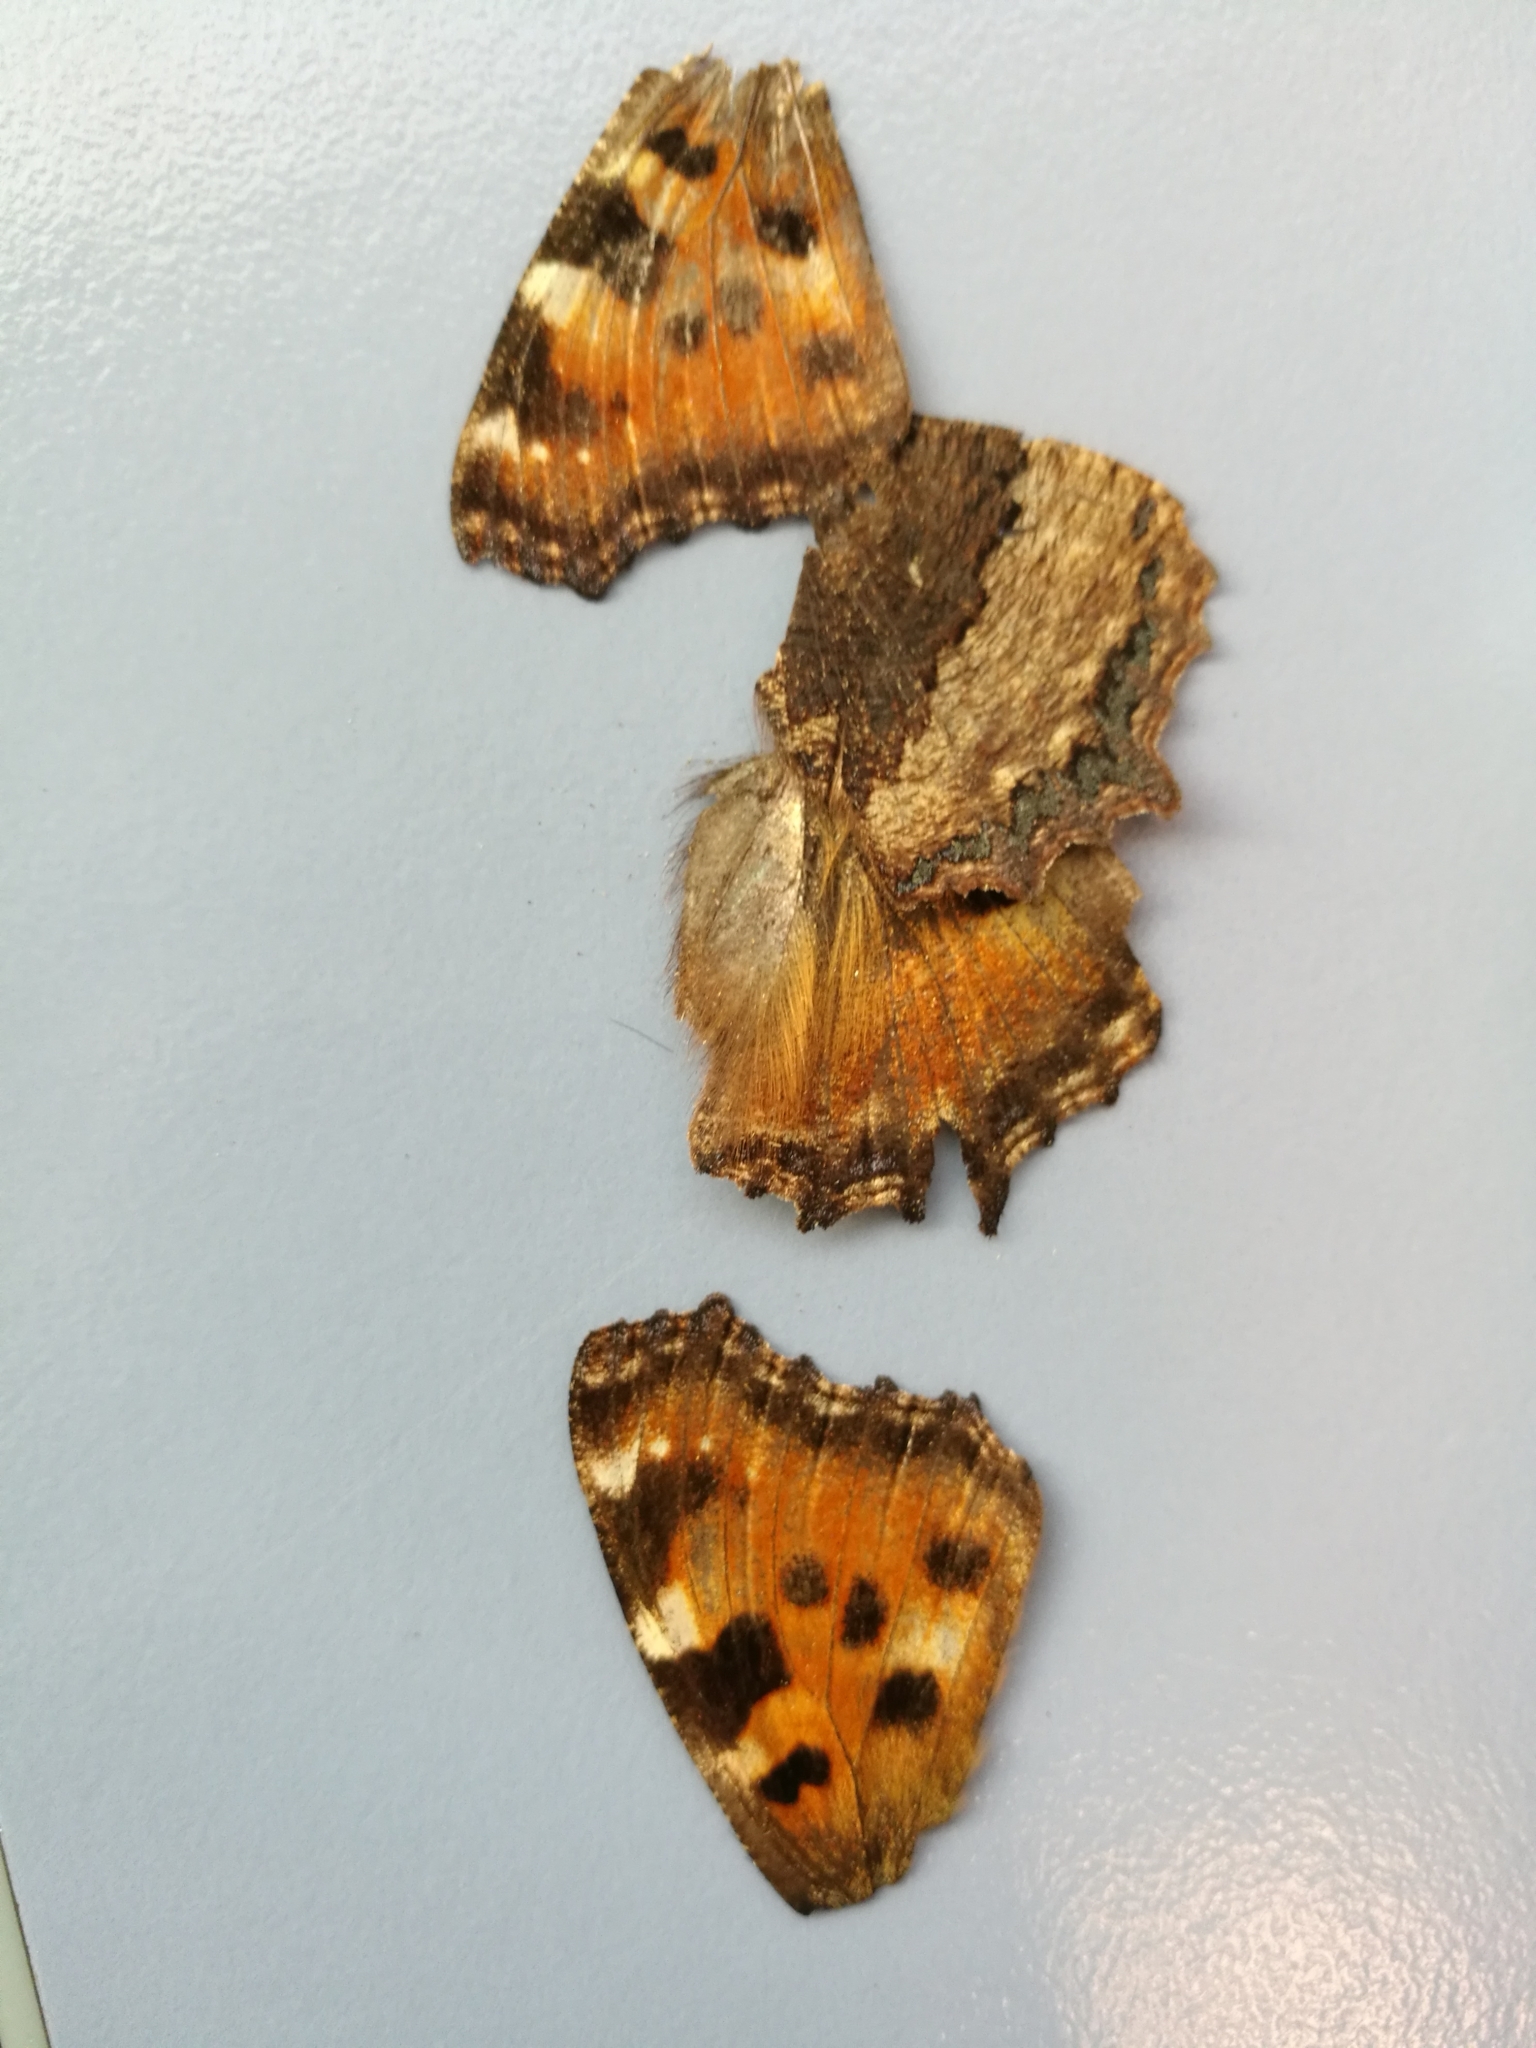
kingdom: Animalia
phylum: Arthropoda
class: Insecta
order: Lepidoptera
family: Nymphalidae
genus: Nymphalis
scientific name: Nymphalis polychloros
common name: Large tortoiseshell
